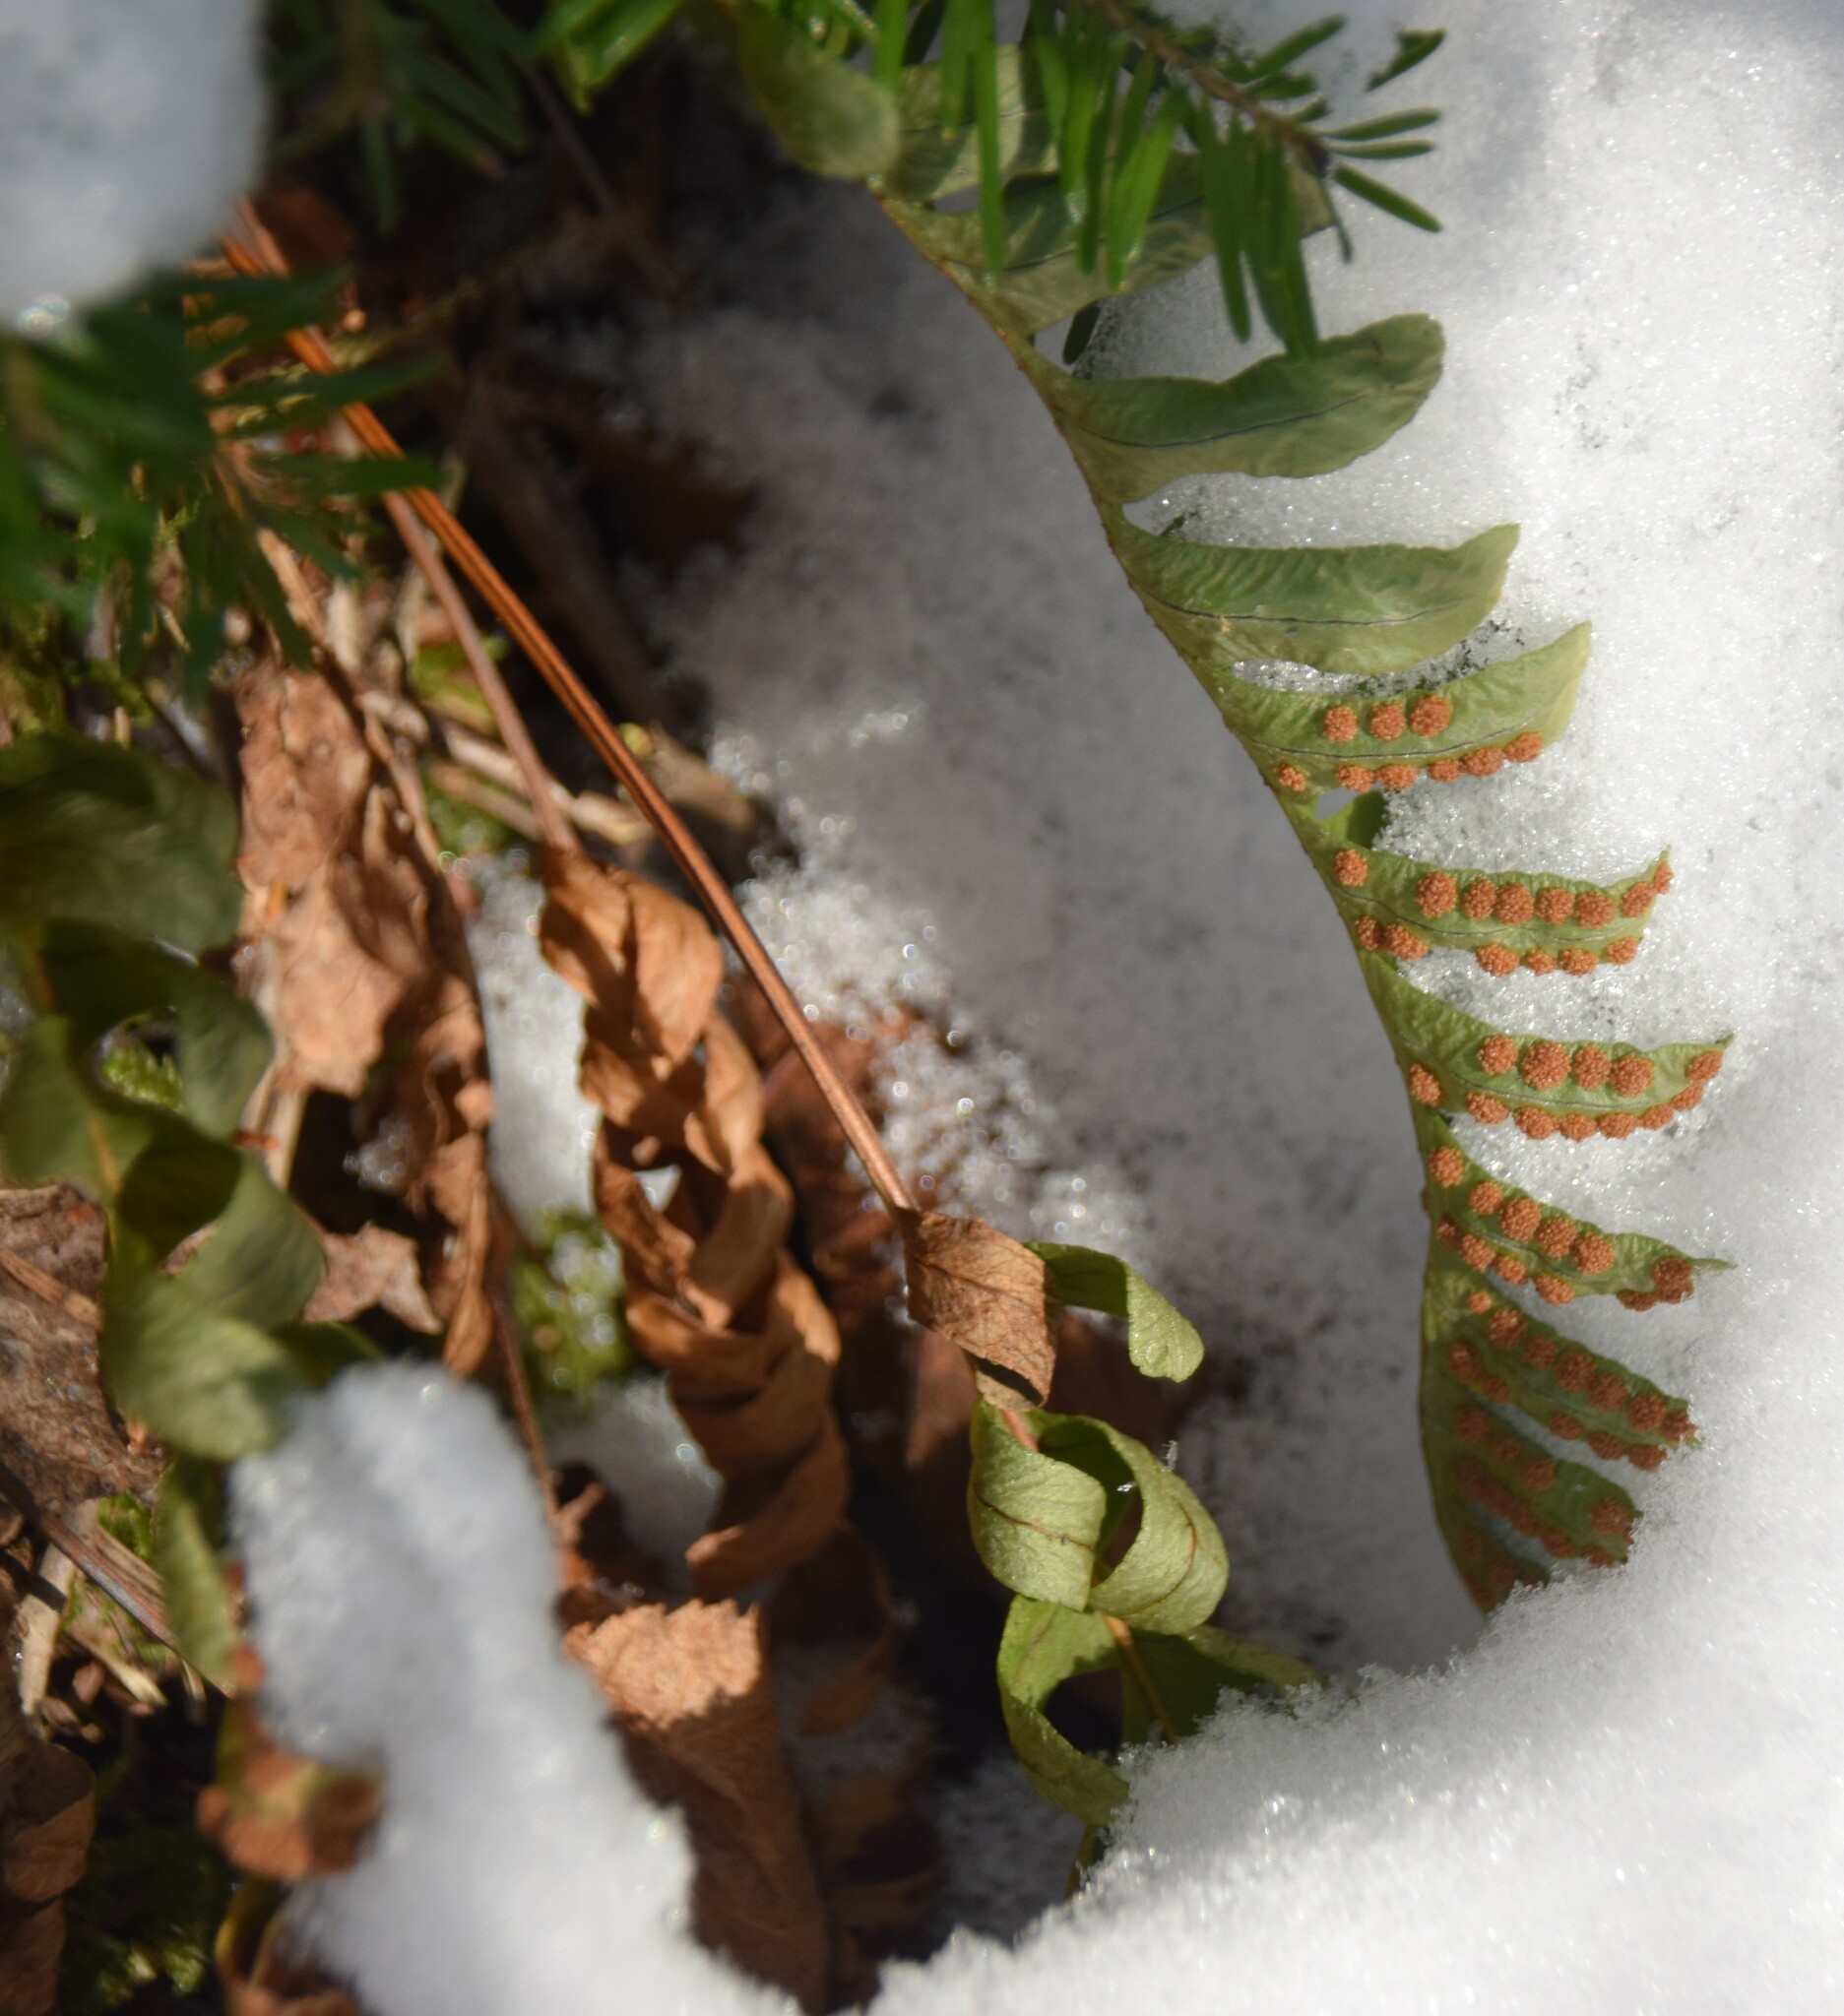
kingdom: Plantae
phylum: Tracheophyta
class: Polypodiopsida
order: Polypodiales
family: Polypodiaceae
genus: Polypodium
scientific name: Polypodium virginianum
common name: American wall fern
